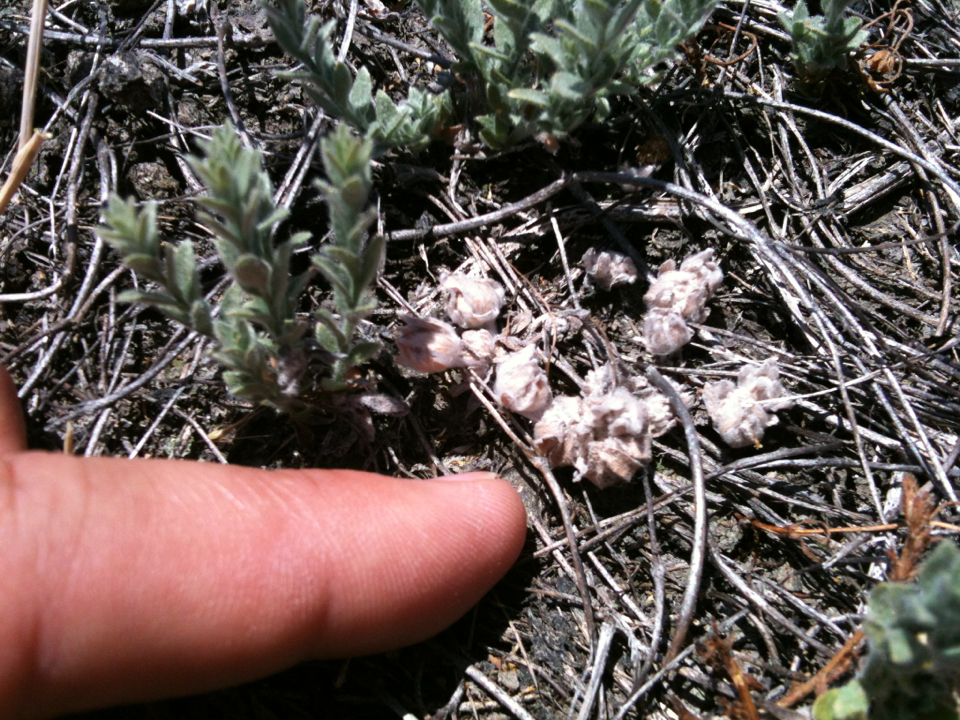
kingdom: Plantae
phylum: Tracheophyta
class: Magnoliopsida
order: Asterales
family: Asteraceae
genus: Psilocarphus
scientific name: Psilocarphus brevissimus
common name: Dwarf woollyheads
